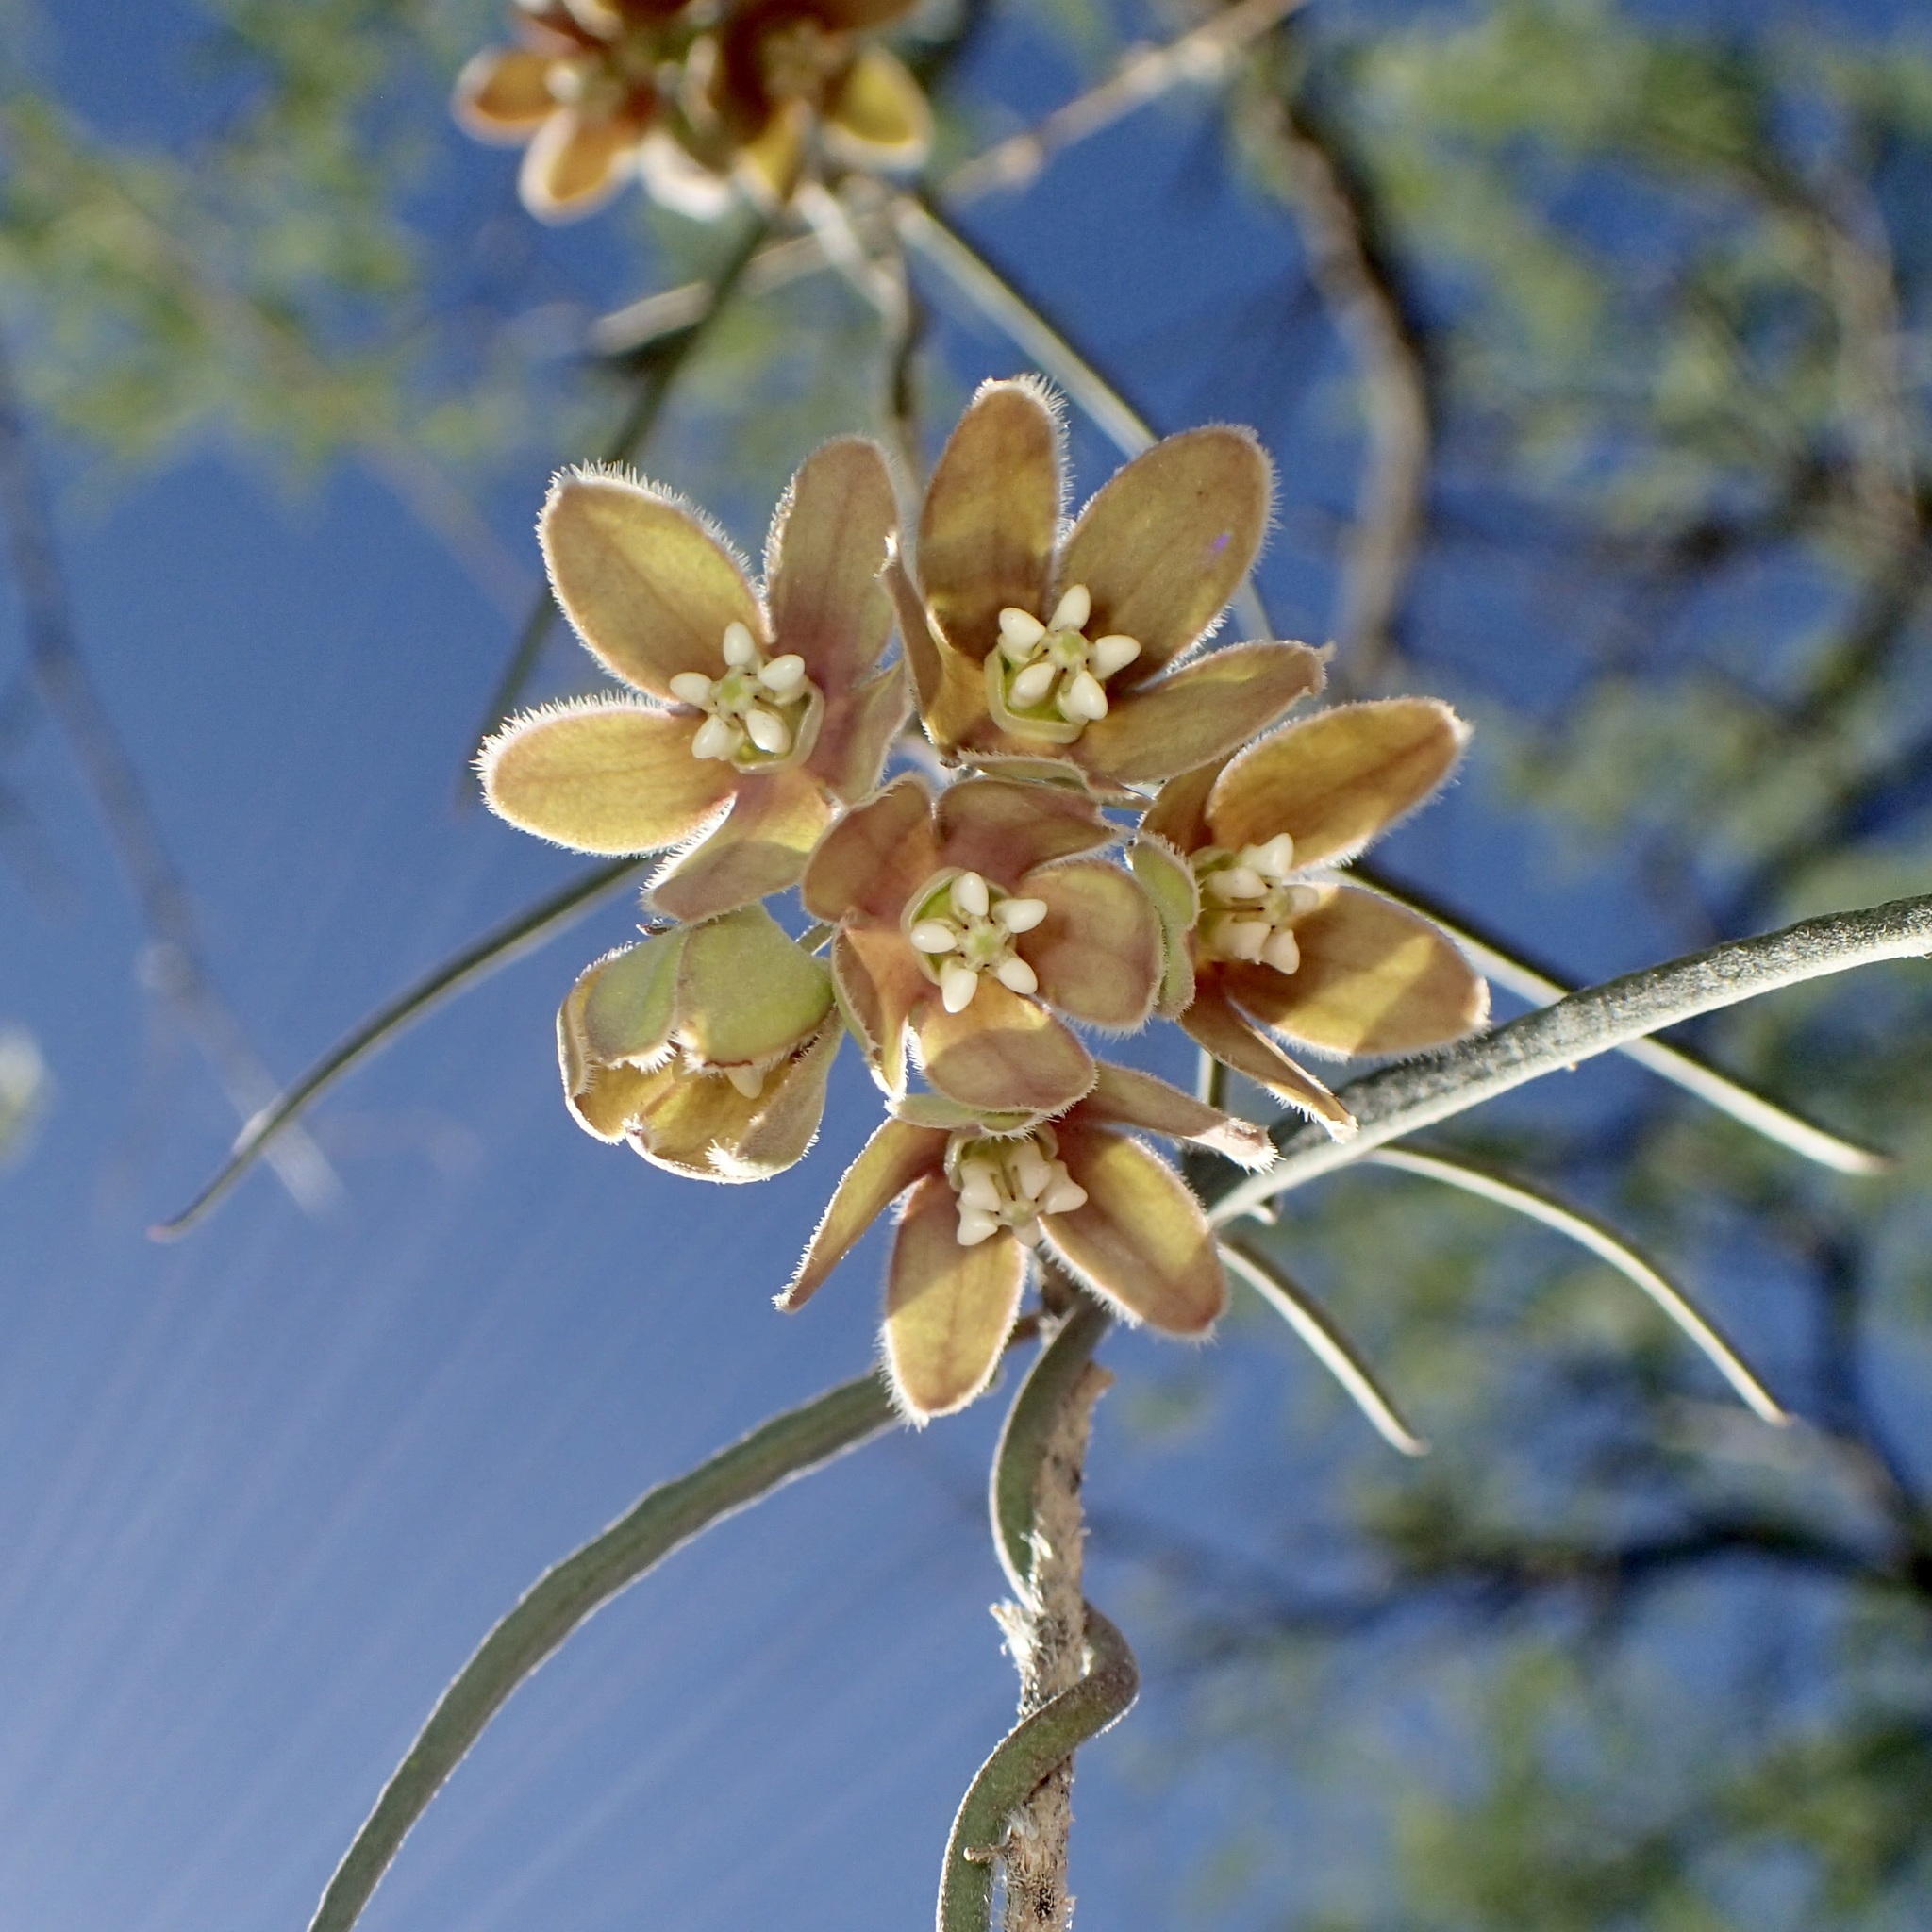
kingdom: Plantae
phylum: Tracheophyta
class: Magnoliopsida
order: Gentianales
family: Apocynaceae
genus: Funastrum
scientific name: Funastrum crispum
